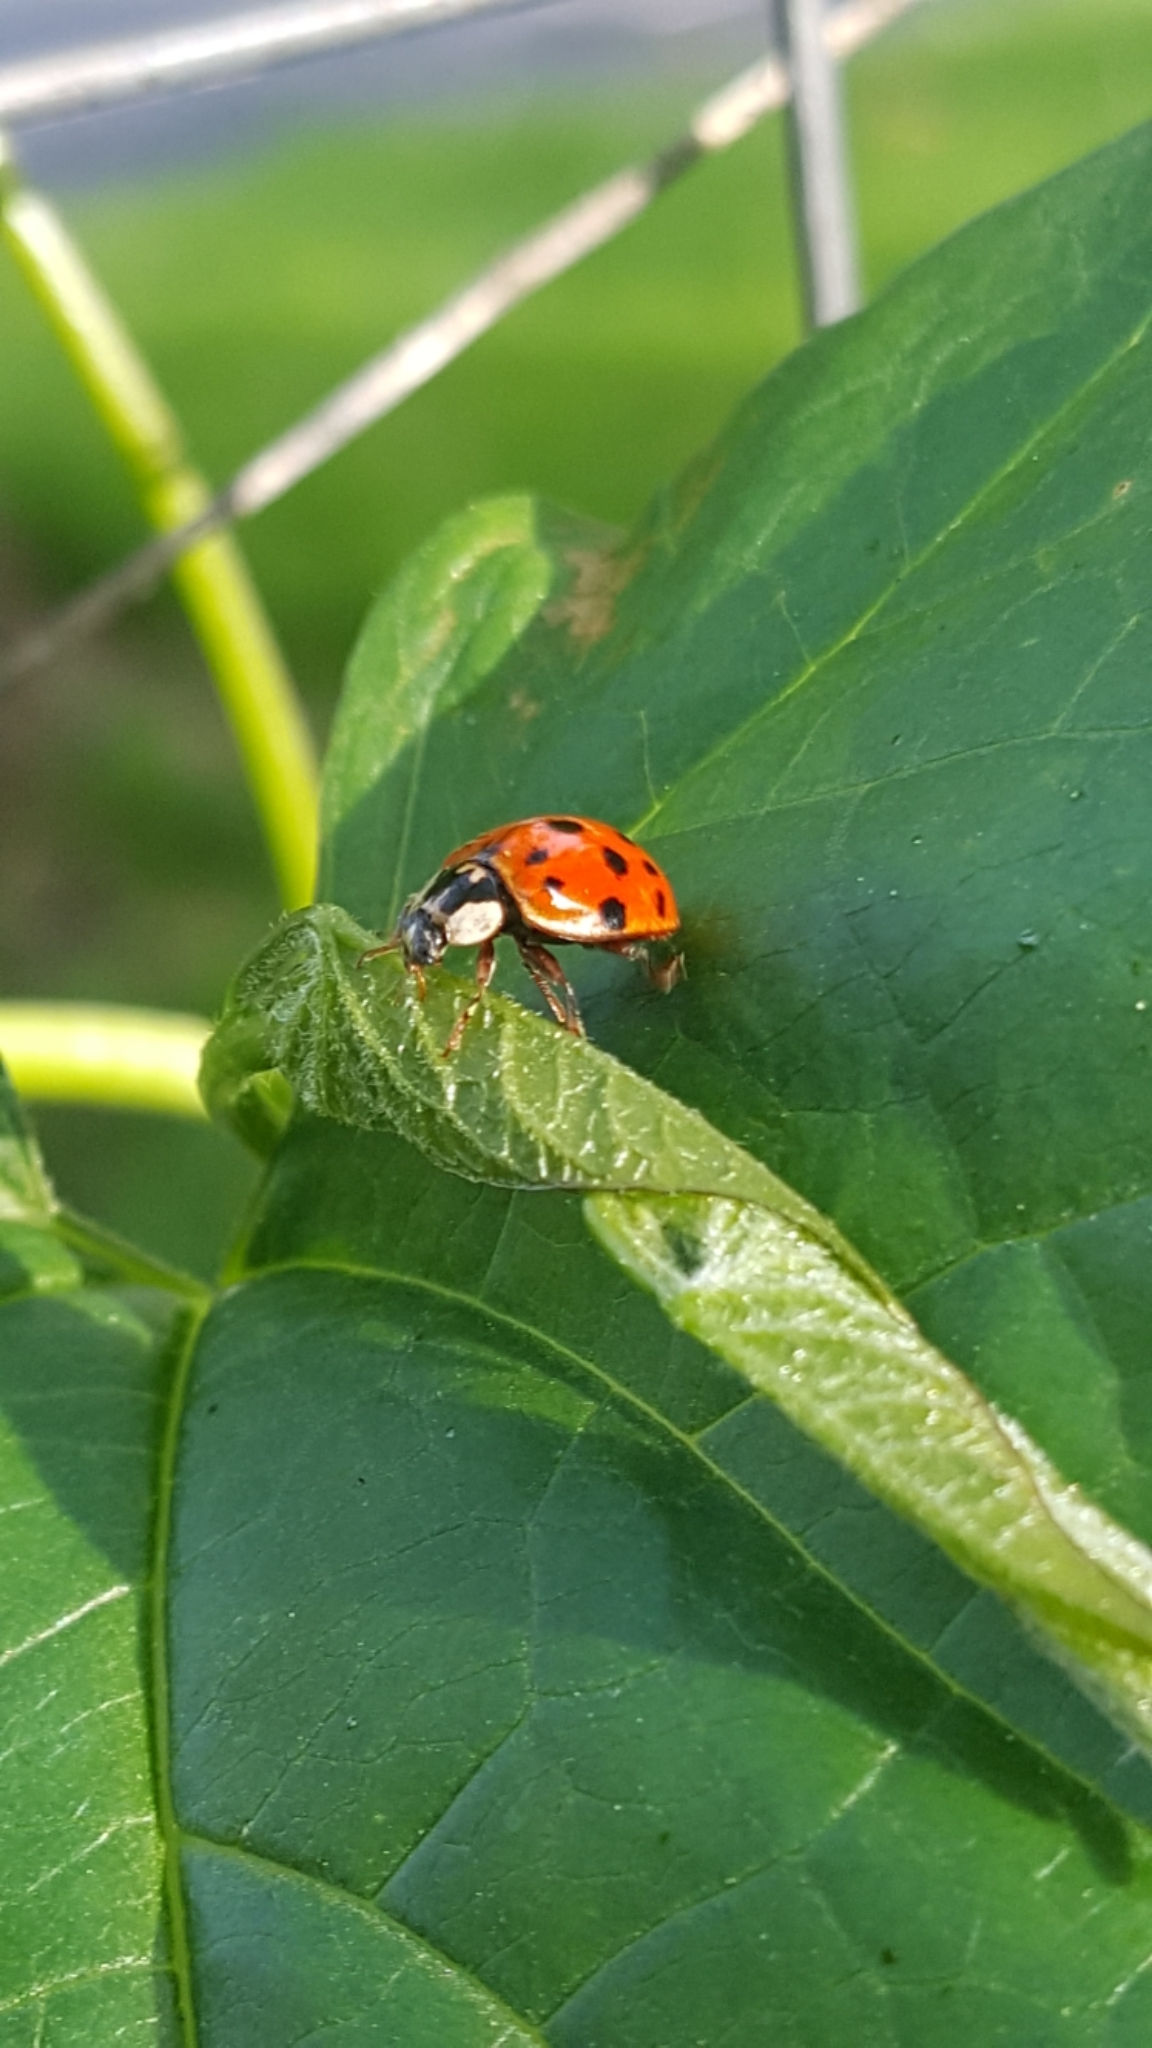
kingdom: Animalia
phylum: Arthropoda
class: Insecta
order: Coleoptera
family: Coccinellidae
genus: Harmonia
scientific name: Harmonia axyridis
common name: Harlequin ladybird
